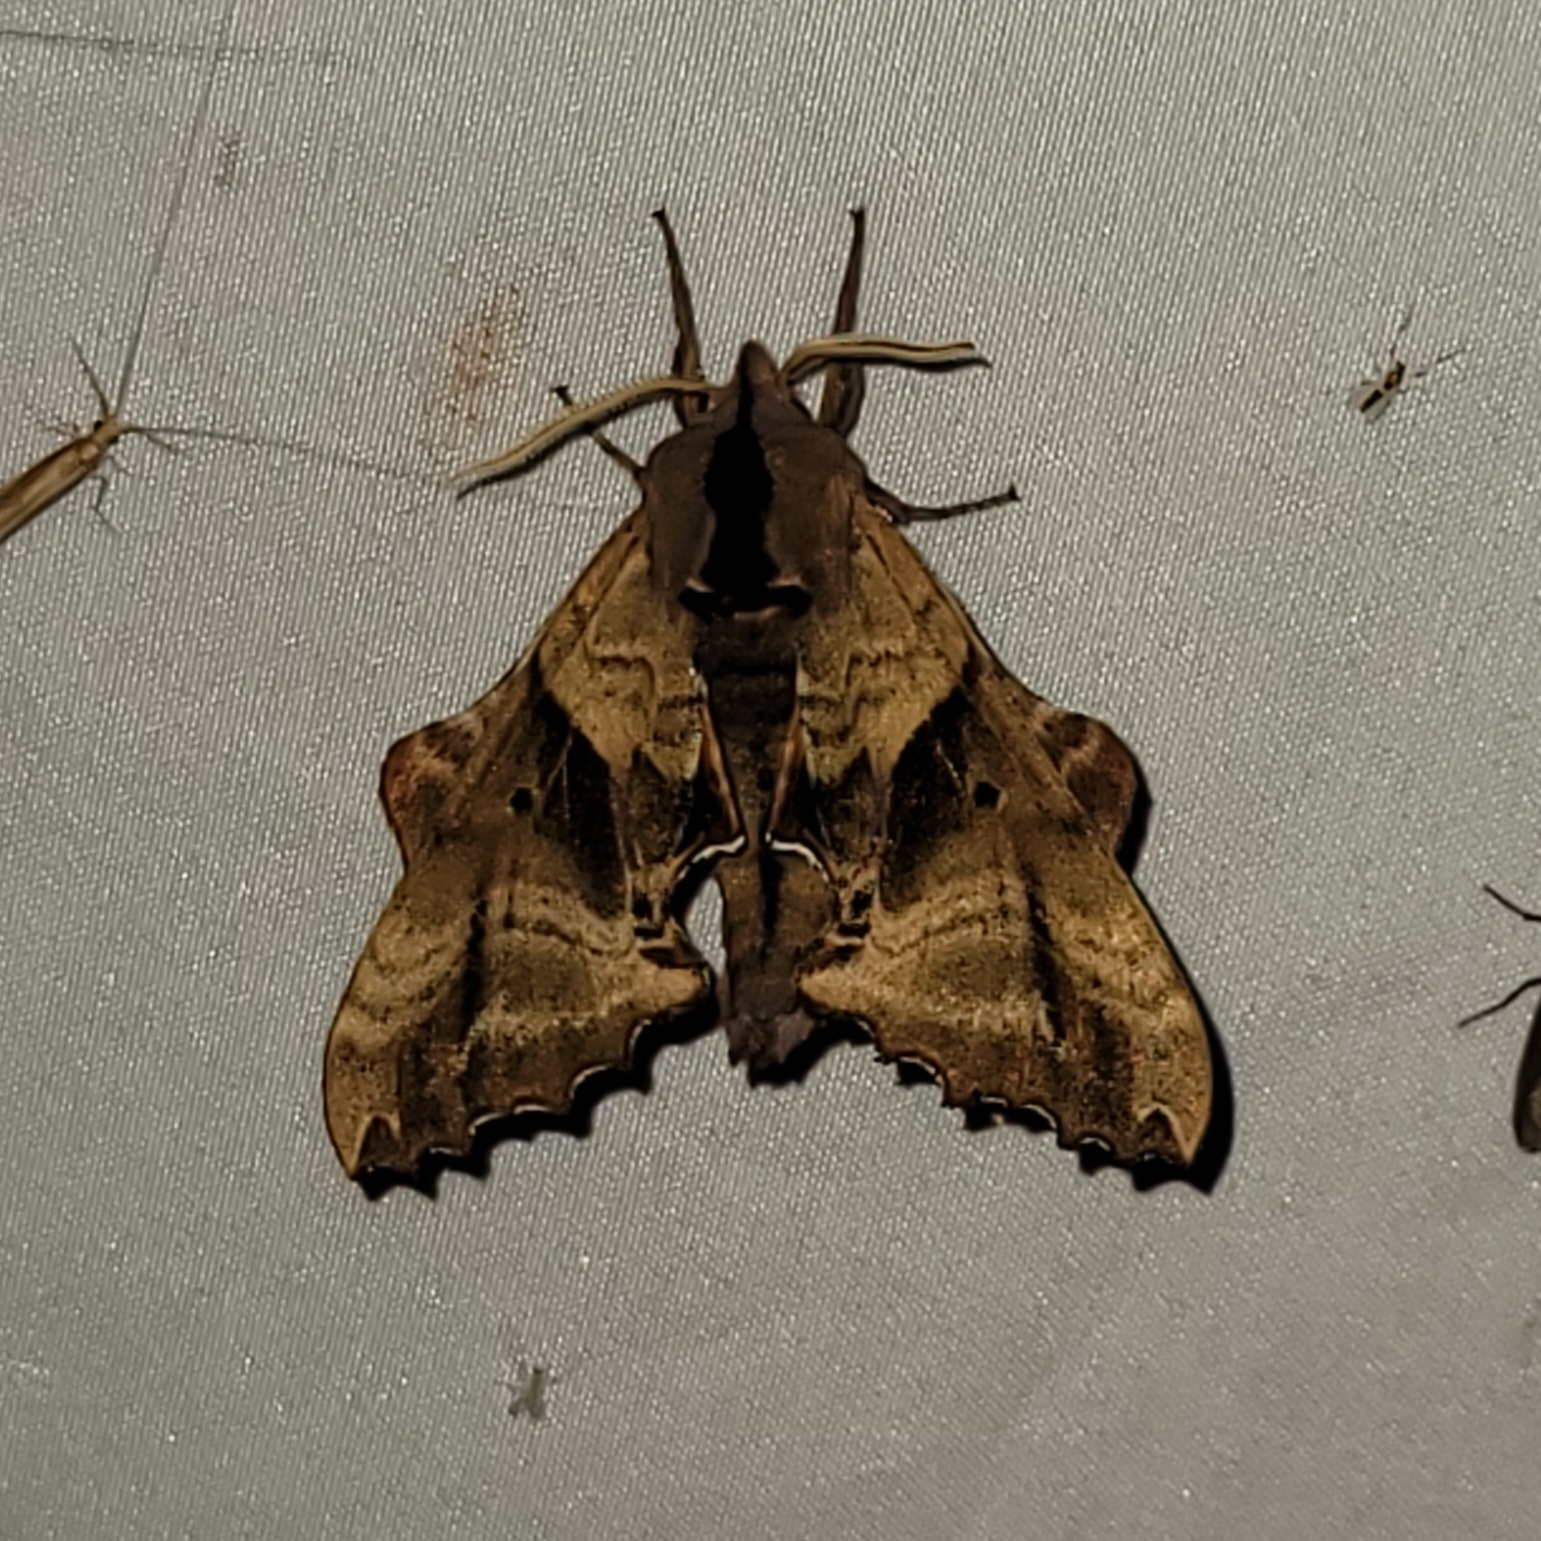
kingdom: Animalia
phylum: Arthropoda
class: Insecta
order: Lepidoptera
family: Sphingidae
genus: Paonias
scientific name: Paonias excaecata
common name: Blind-eyed sphinx
